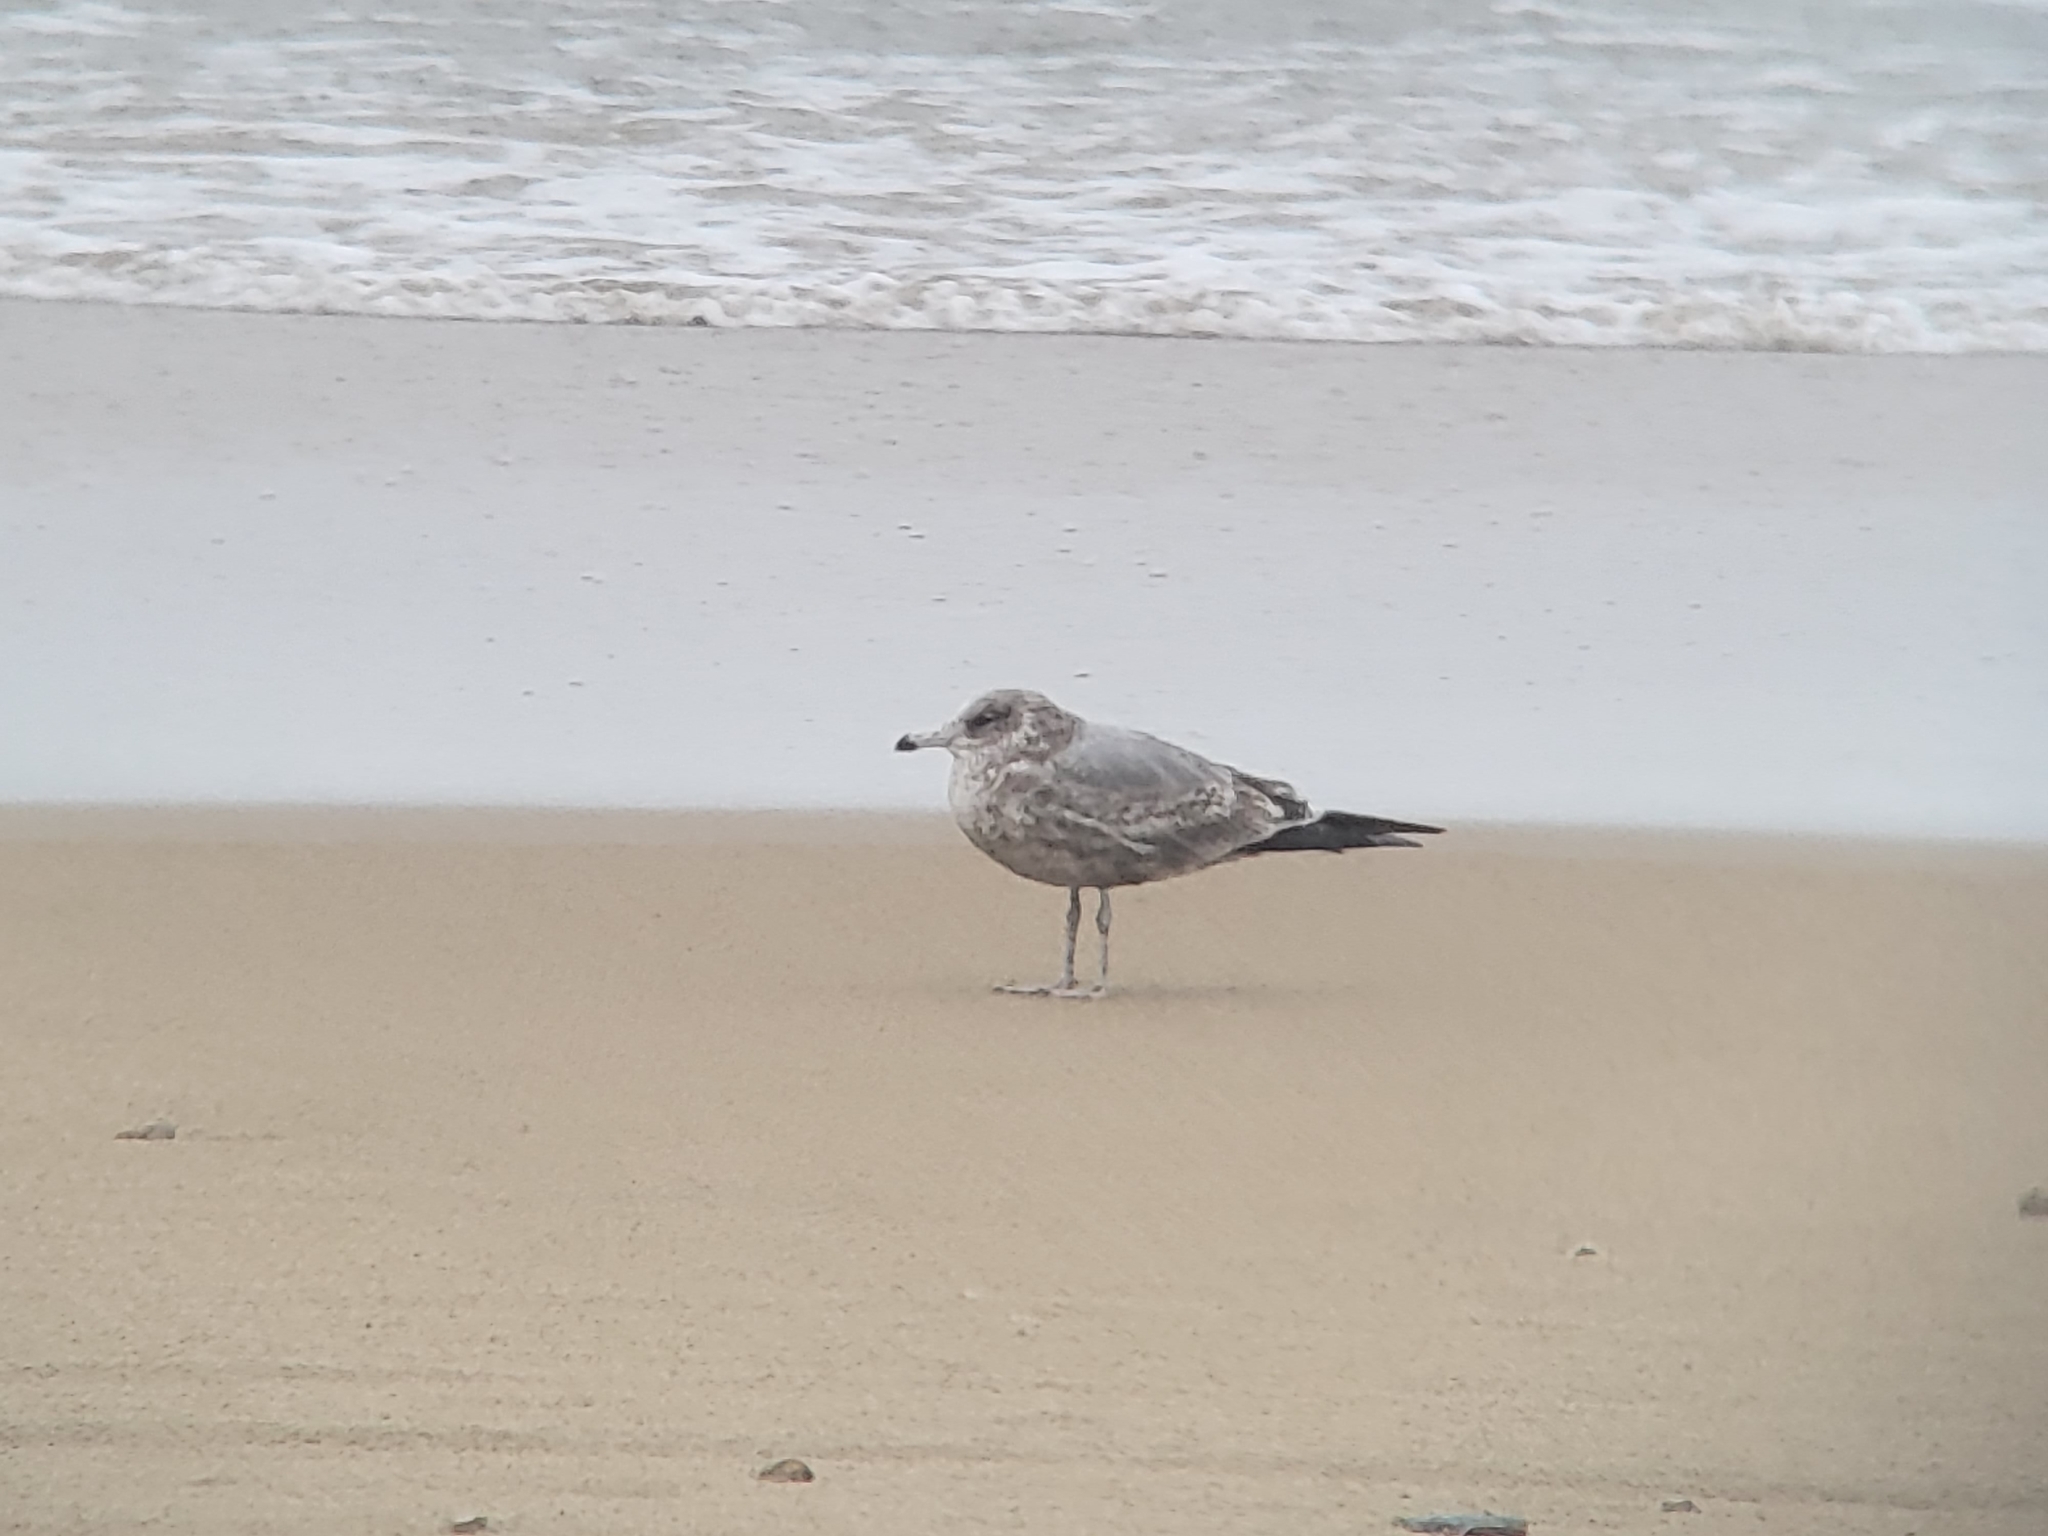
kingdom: Animalia
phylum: Chordata
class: Aves
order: Charadriiformes
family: Laridae
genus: Larus
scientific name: Larus californicus
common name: California gull
